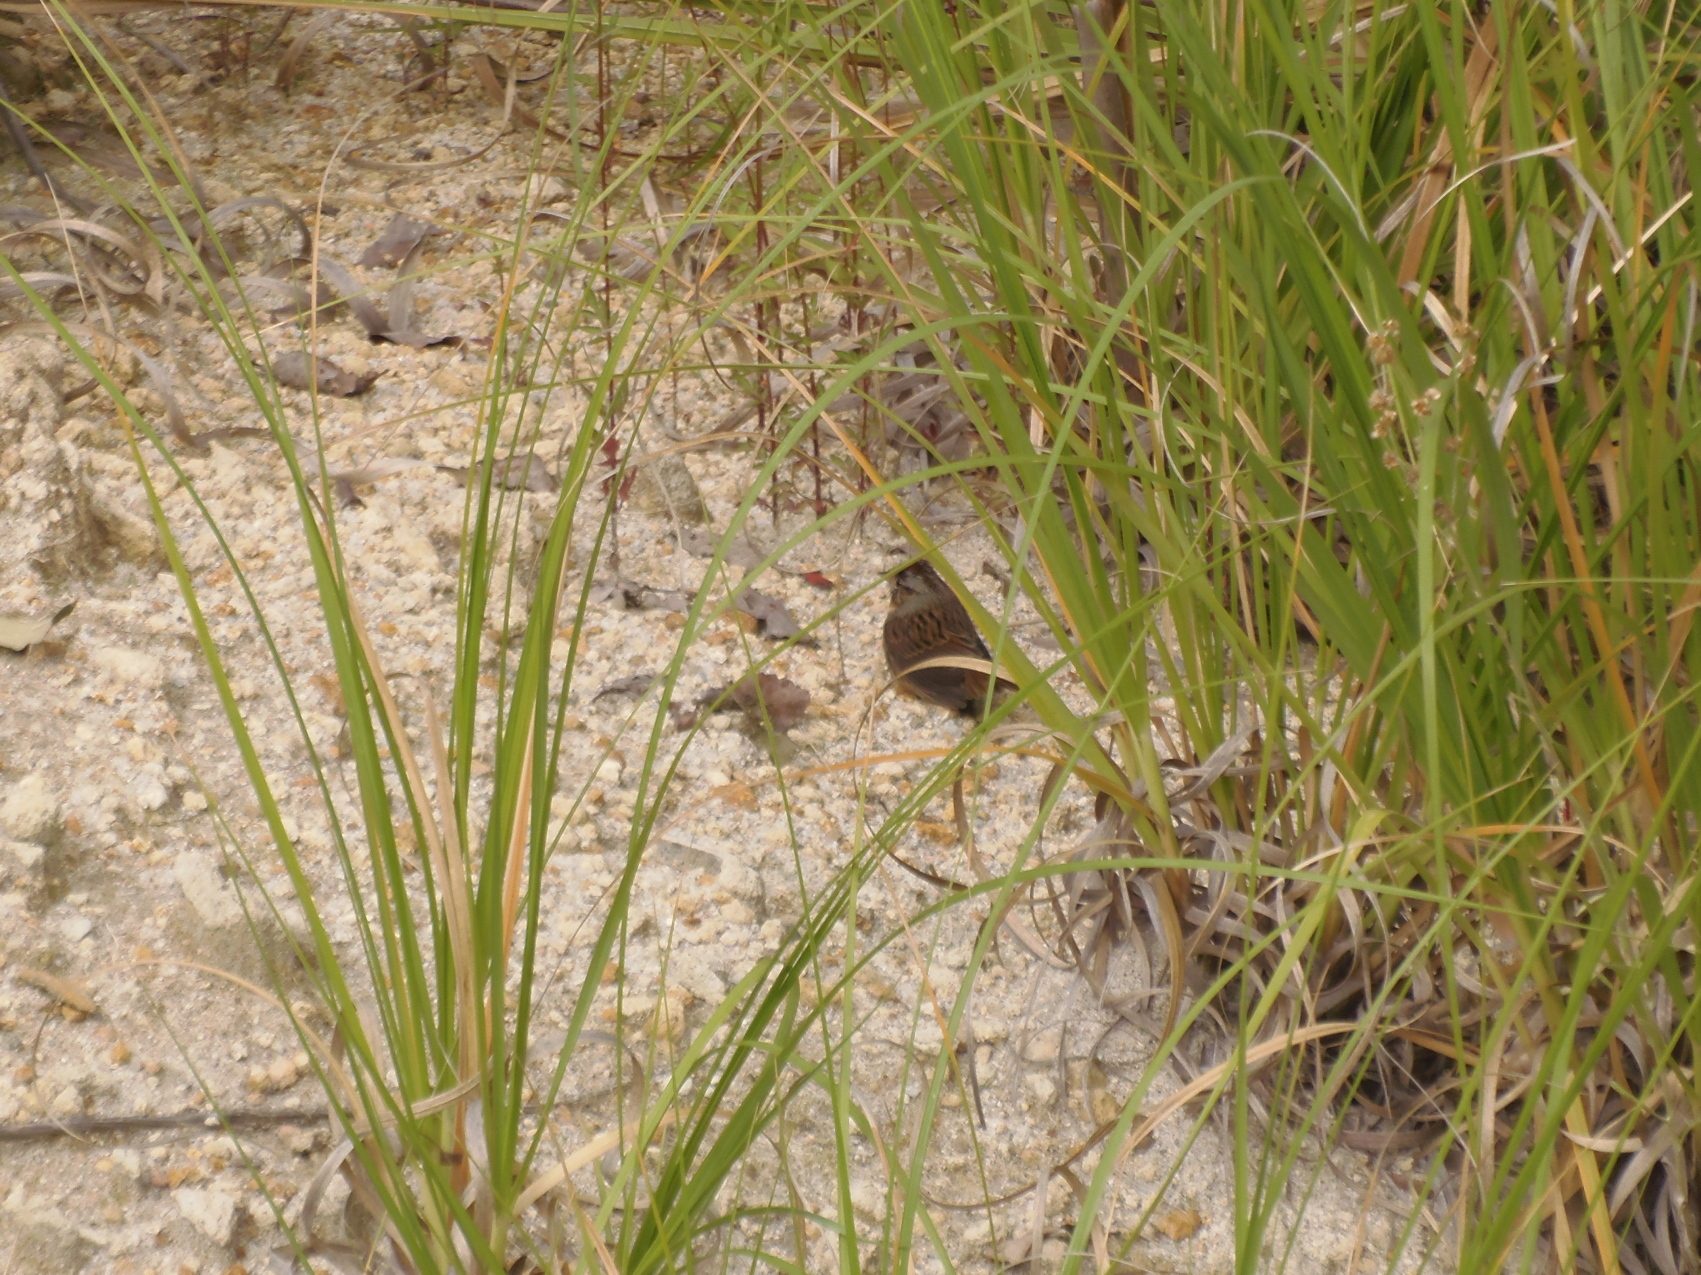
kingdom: Animalia
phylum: Chordata
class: Aves
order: Passeriformes
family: Passerellidae
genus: Melospiza
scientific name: Melospiza lincolnii
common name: Lincoln's sparrow
